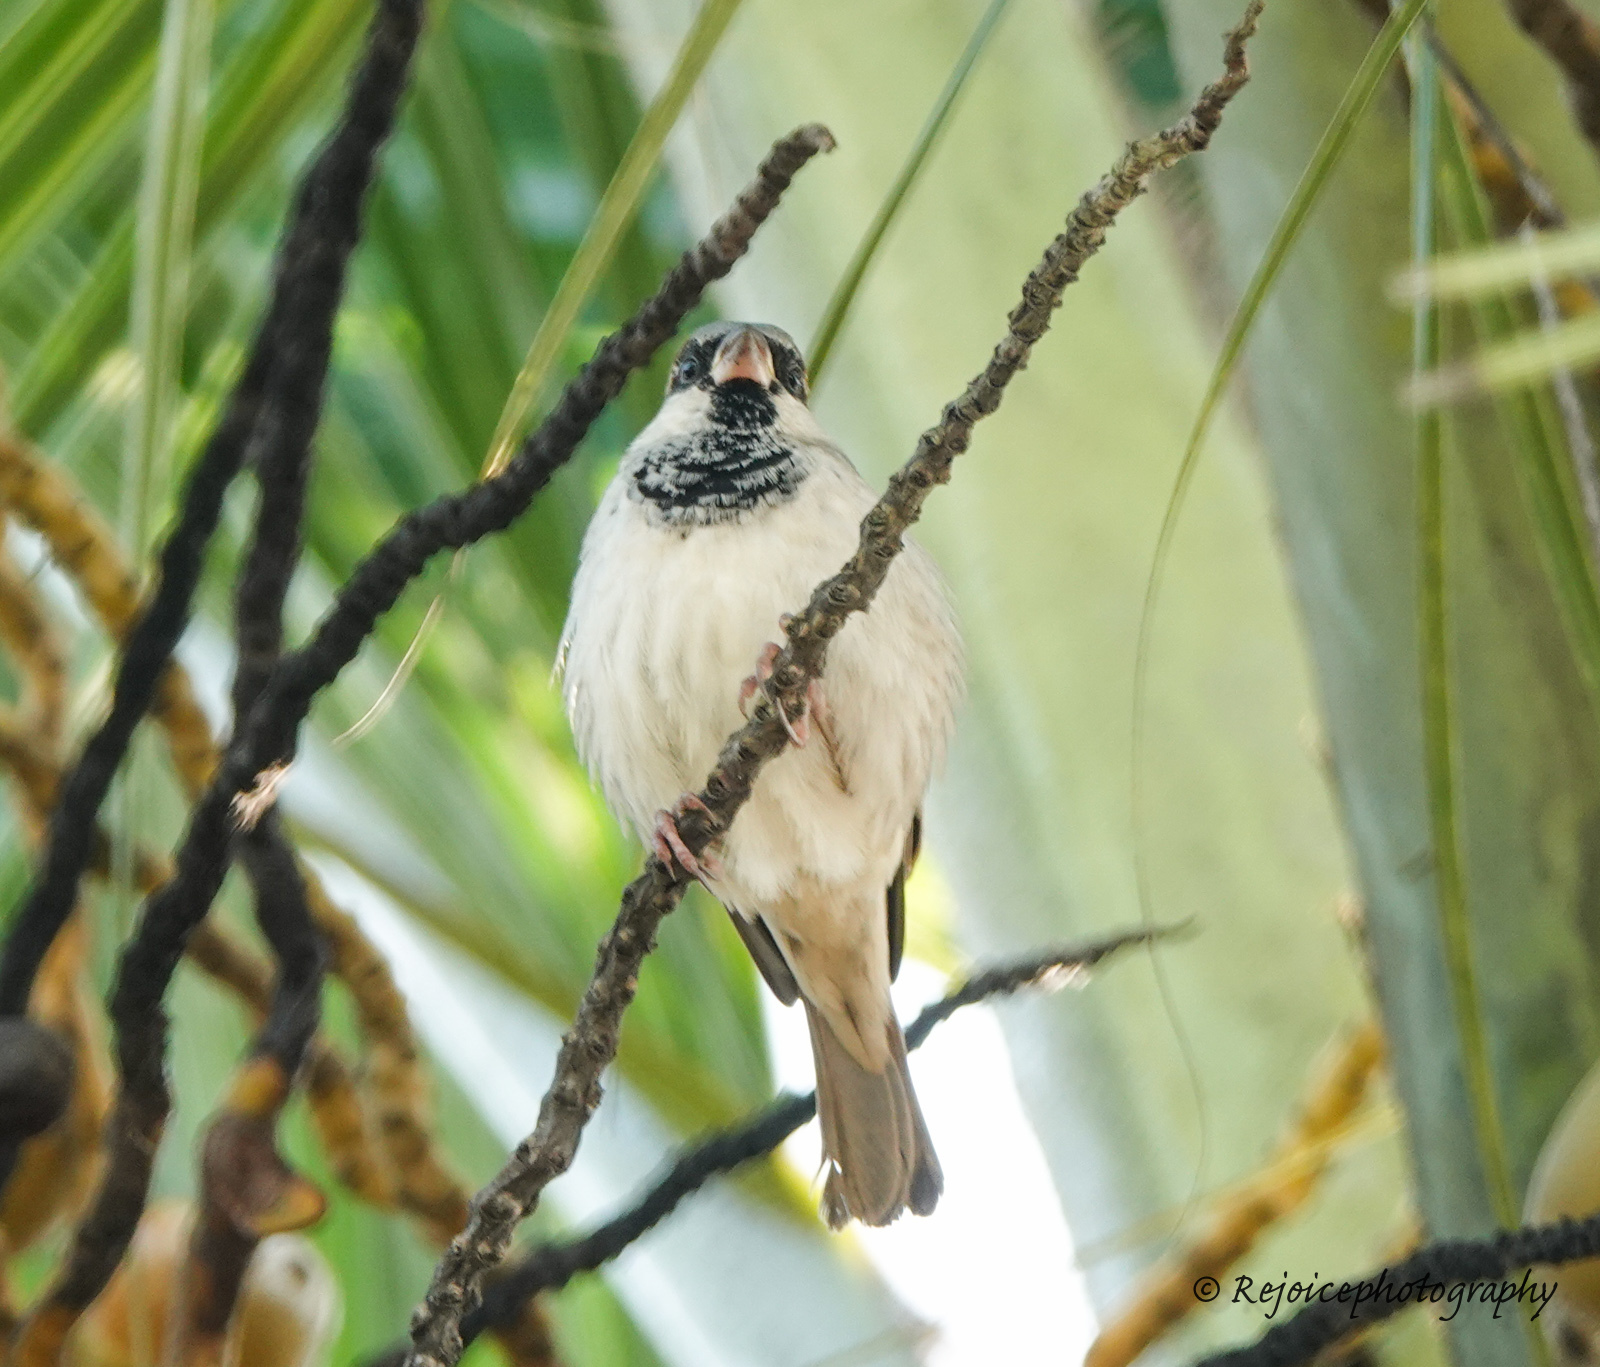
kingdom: Animalia
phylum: Chordata
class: Aves
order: Passeriformes
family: Passeridae
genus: Passer
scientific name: Passer domesticus
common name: House sparrow
